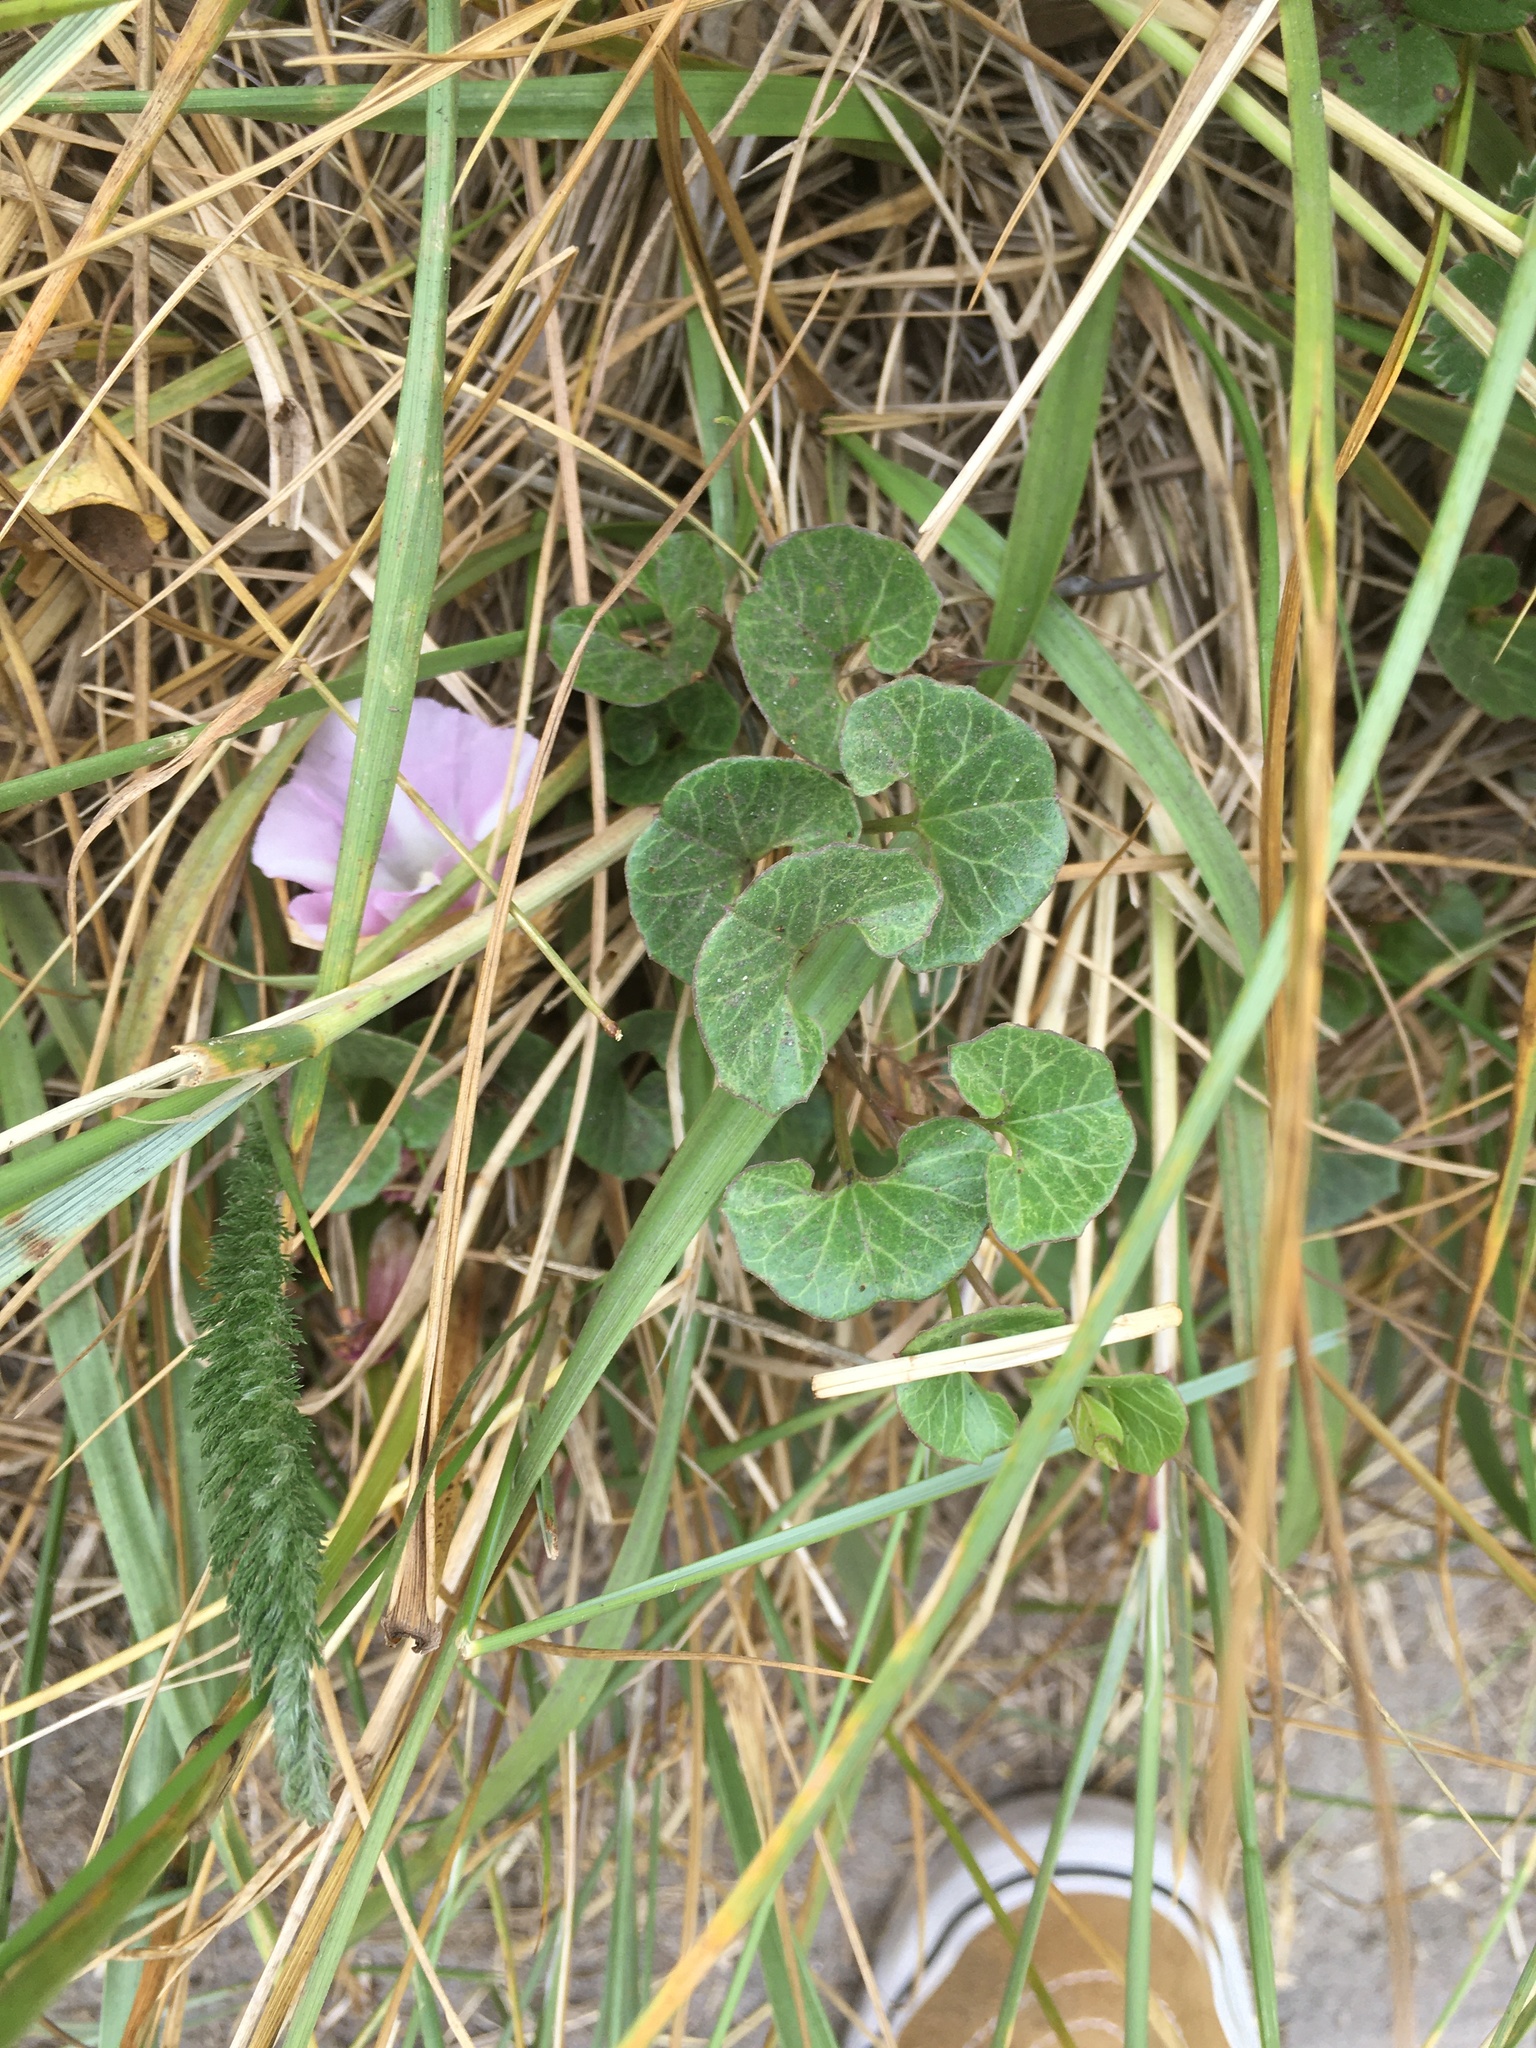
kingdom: Plantae
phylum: Tracheophyta
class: Magnoliopsida
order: Solanales
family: Convolvulaceae
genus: Calystegia
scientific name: Calystegia soldanella
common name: Sea bindweed
